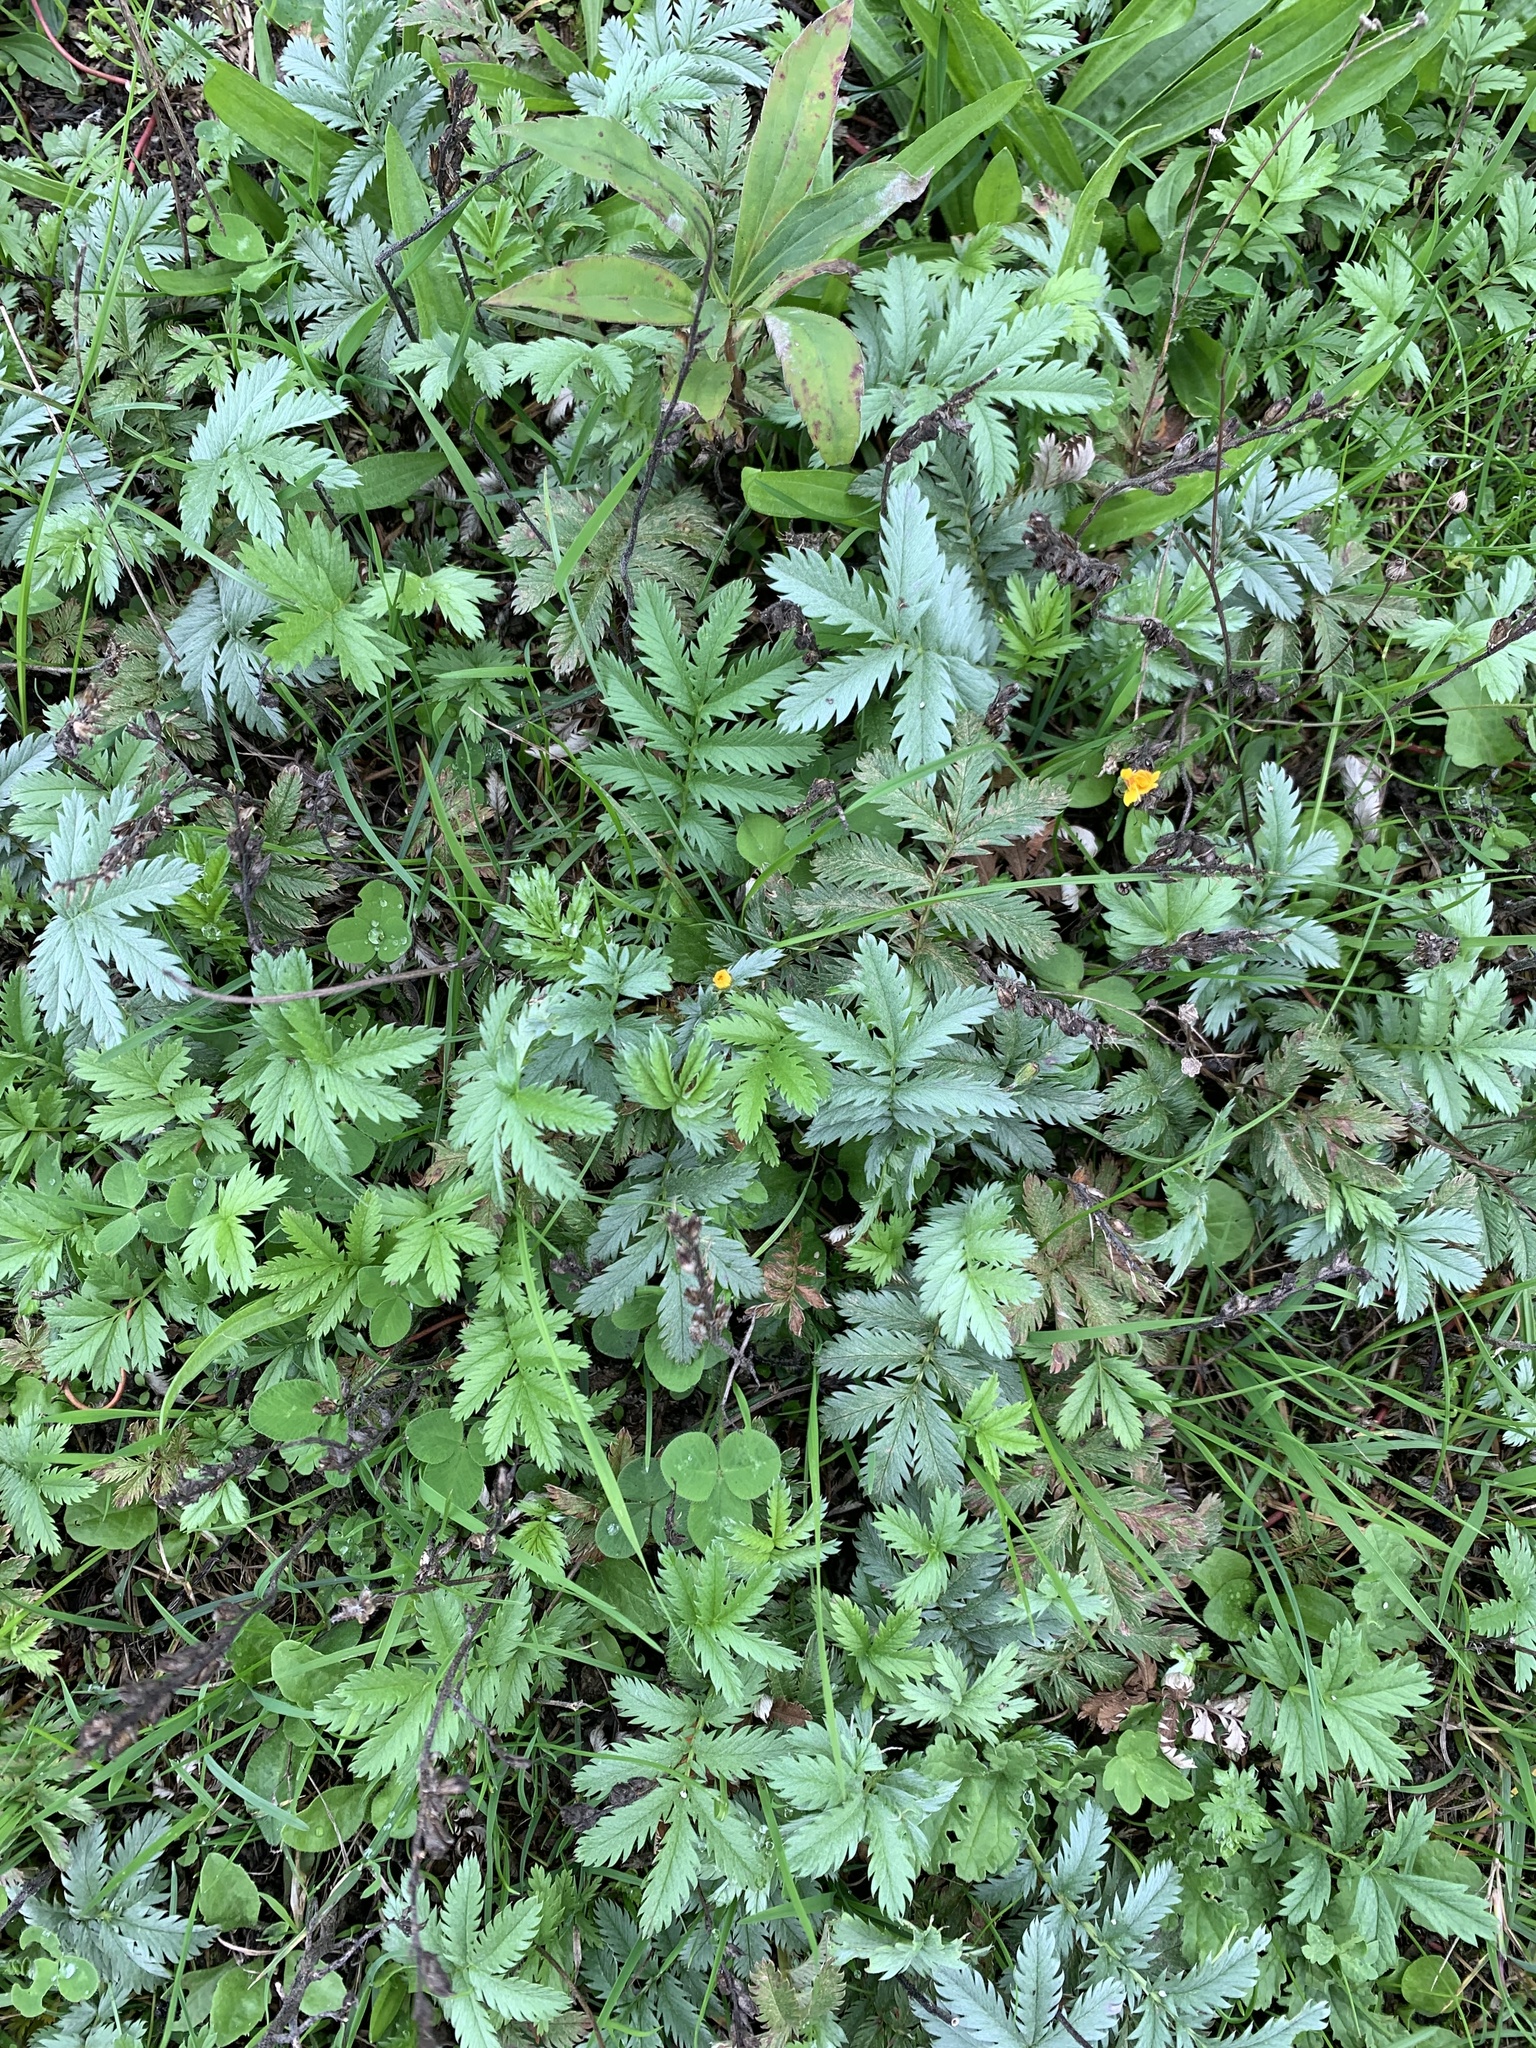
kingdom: Plantae
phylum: Tracheophyta
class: Magnoliopsida
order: Rosales
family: Rosaceae
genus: Argentina
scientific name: Argentina anserina
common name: Common silverweed
